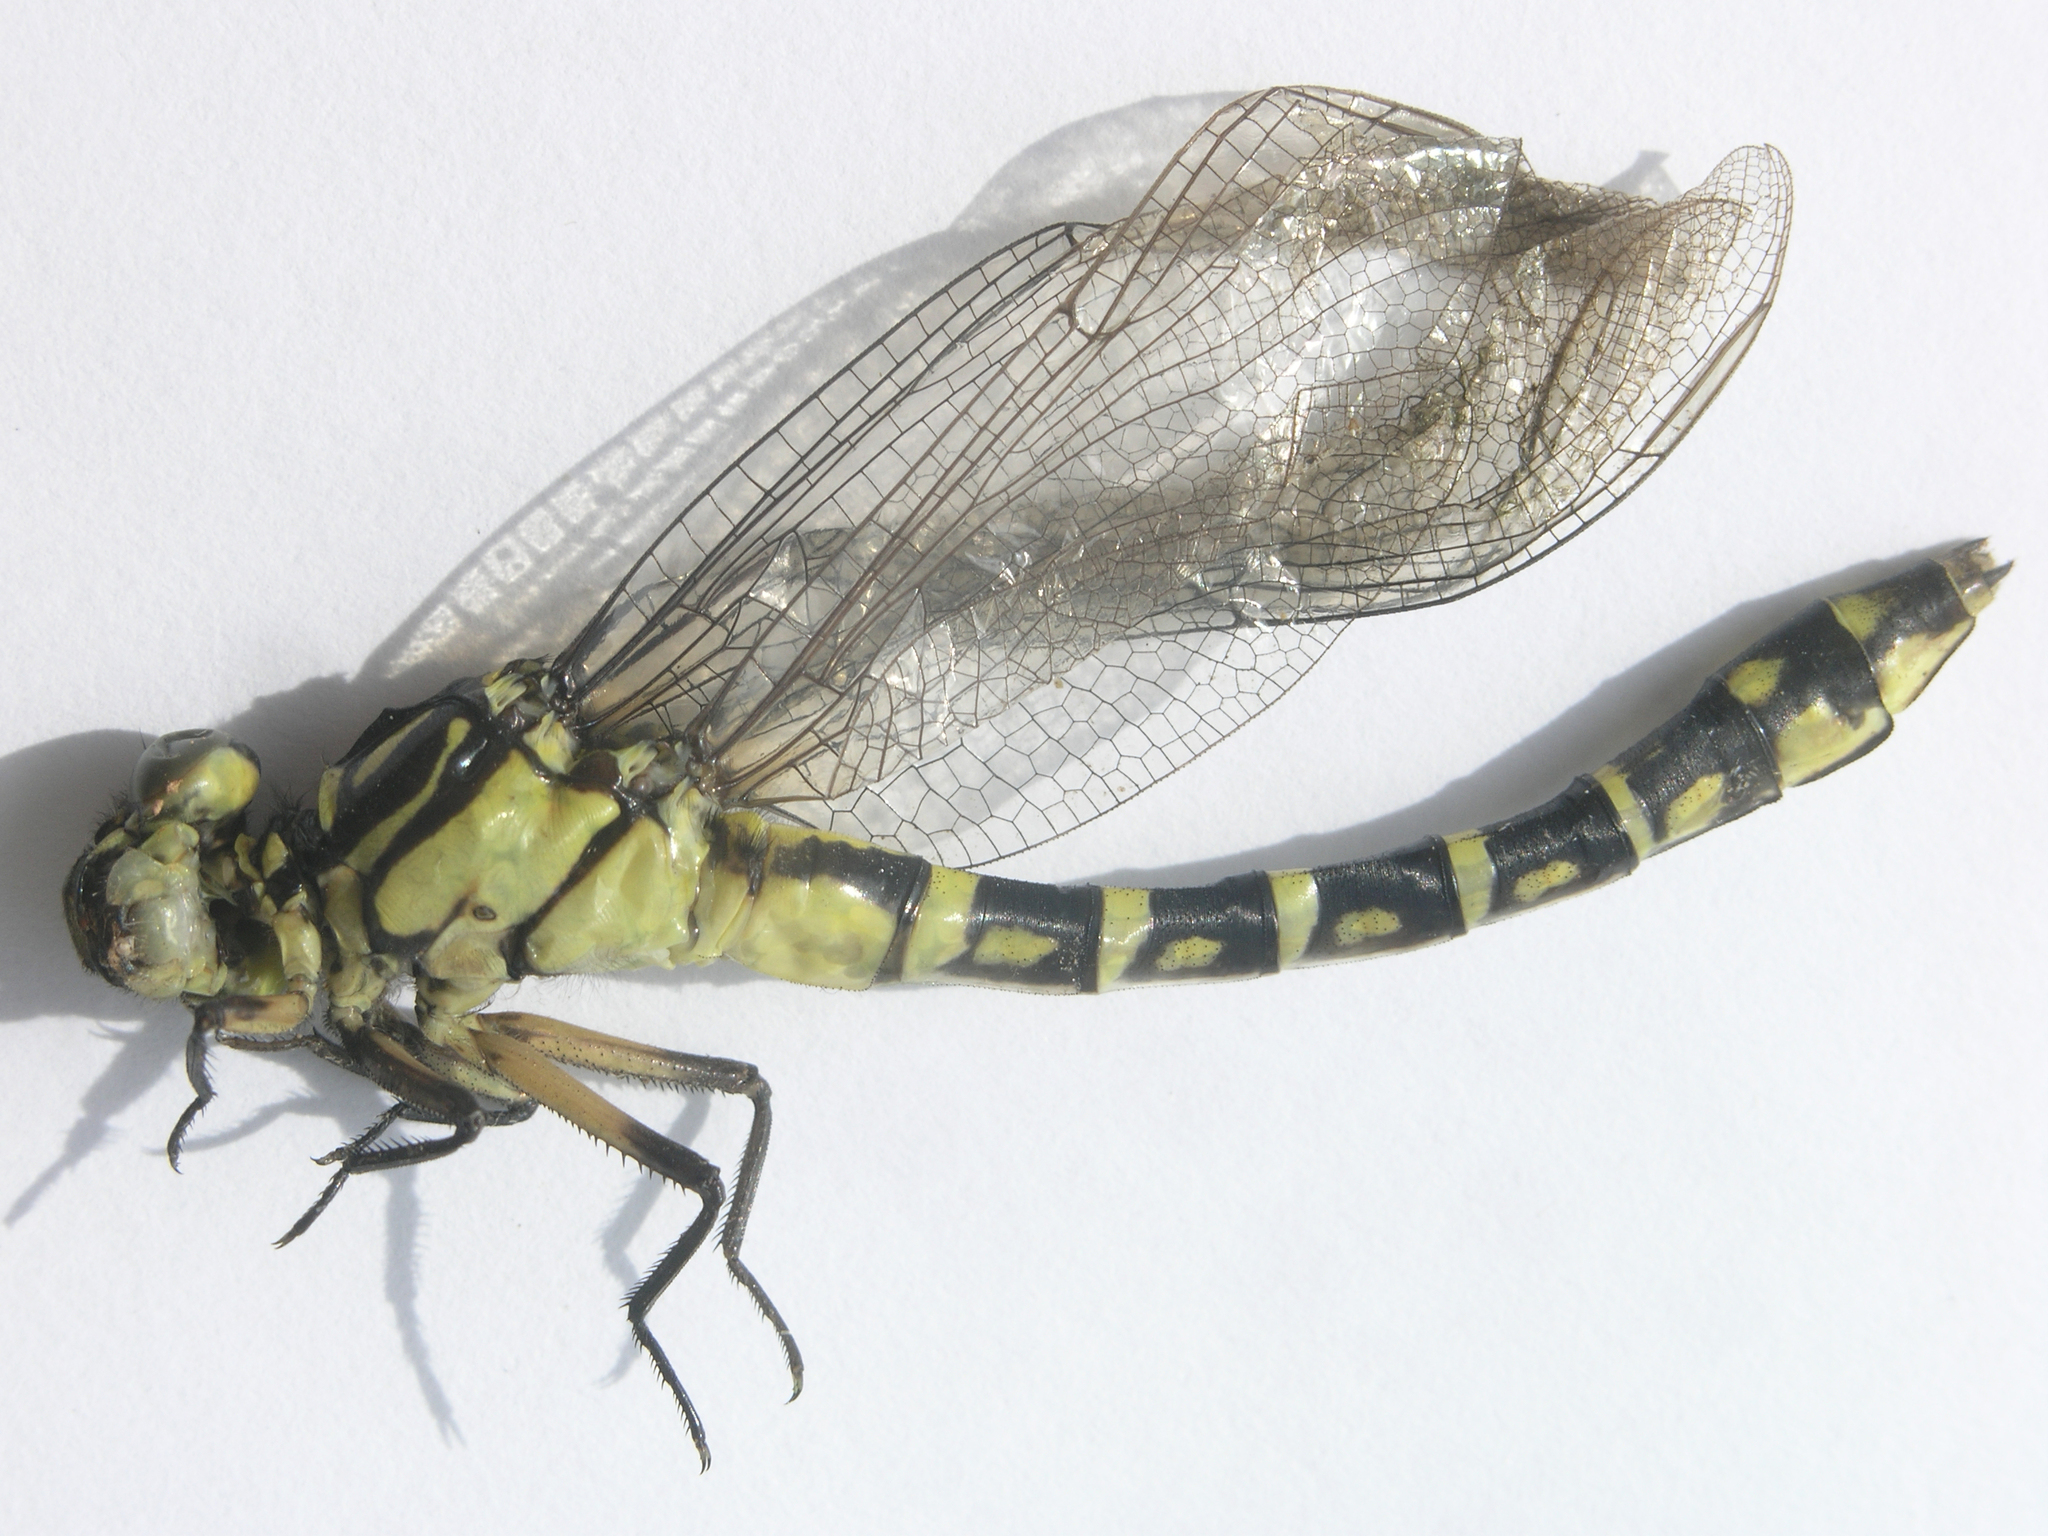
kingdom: Animalia
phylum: Arthropoda
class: Insecta
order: Odonata
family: Gomphidae
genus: Stylurus
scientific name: Stylurus annulatus
